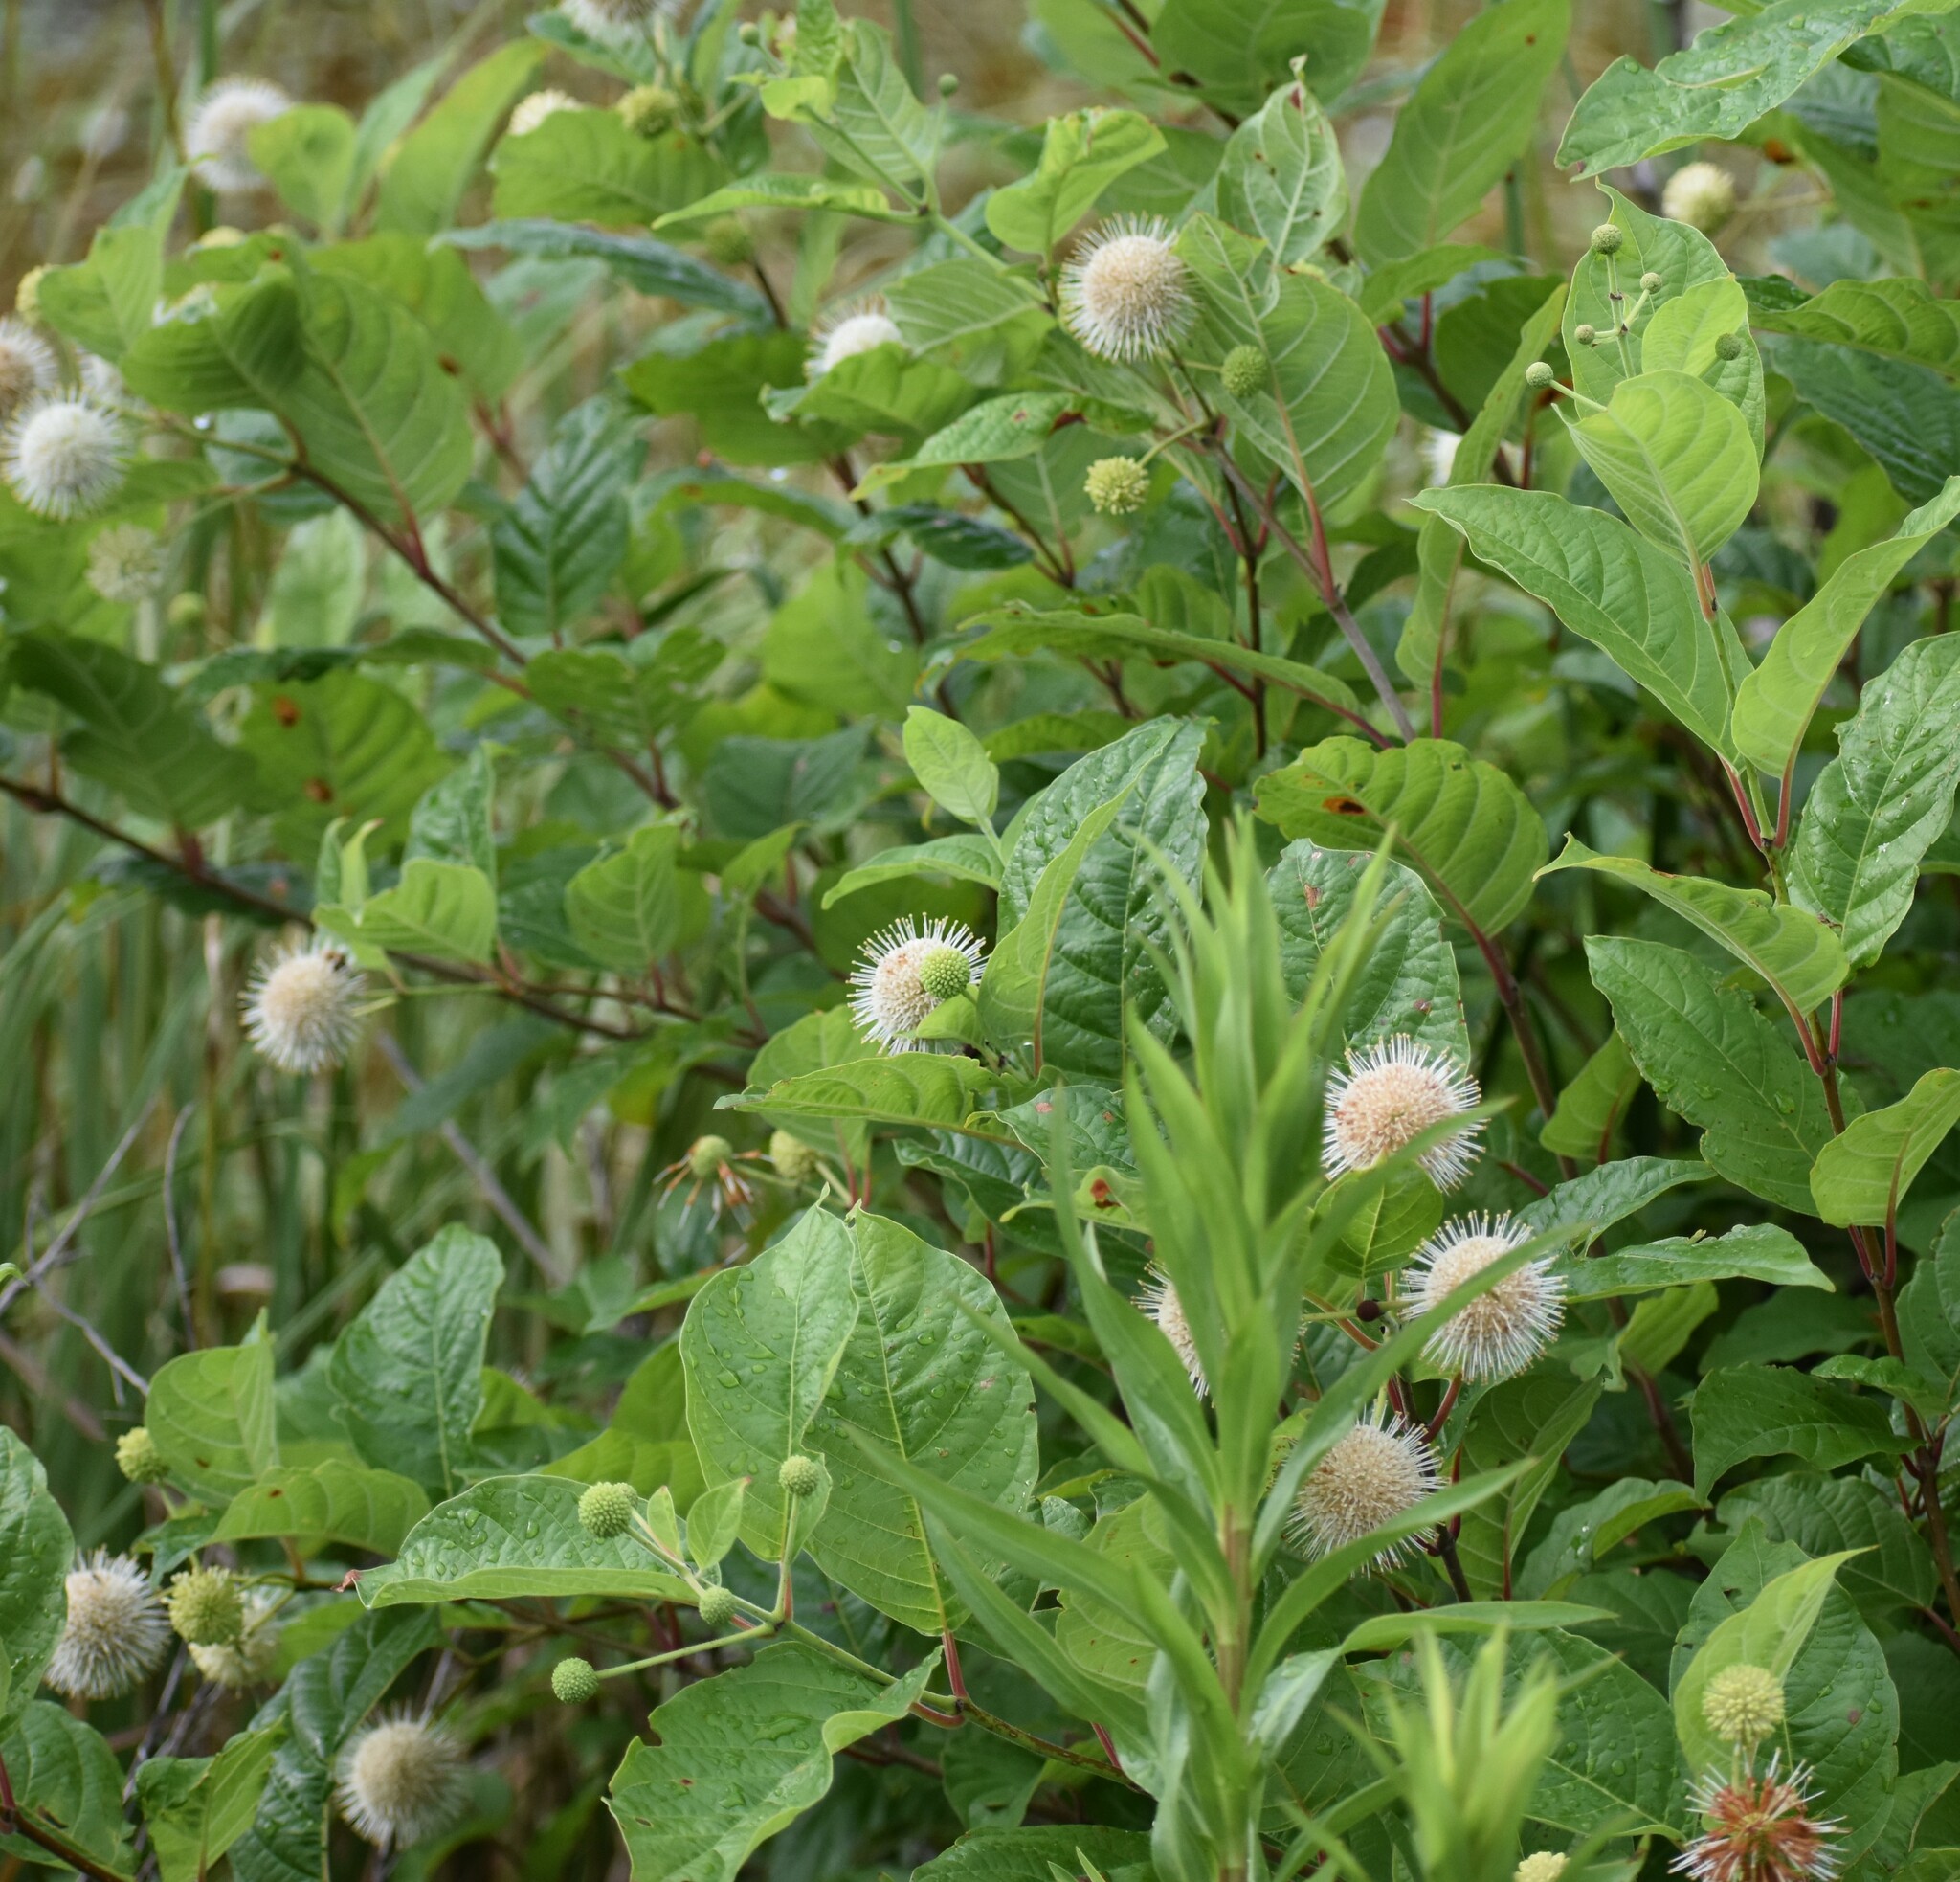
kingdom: Plantae
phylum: Tracheophyta
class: Magnoliopsida
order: Gentianales
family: Rubiaceae
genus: Cephalanthus
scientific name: Cephalanthus occidentalis
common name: Button-willow
